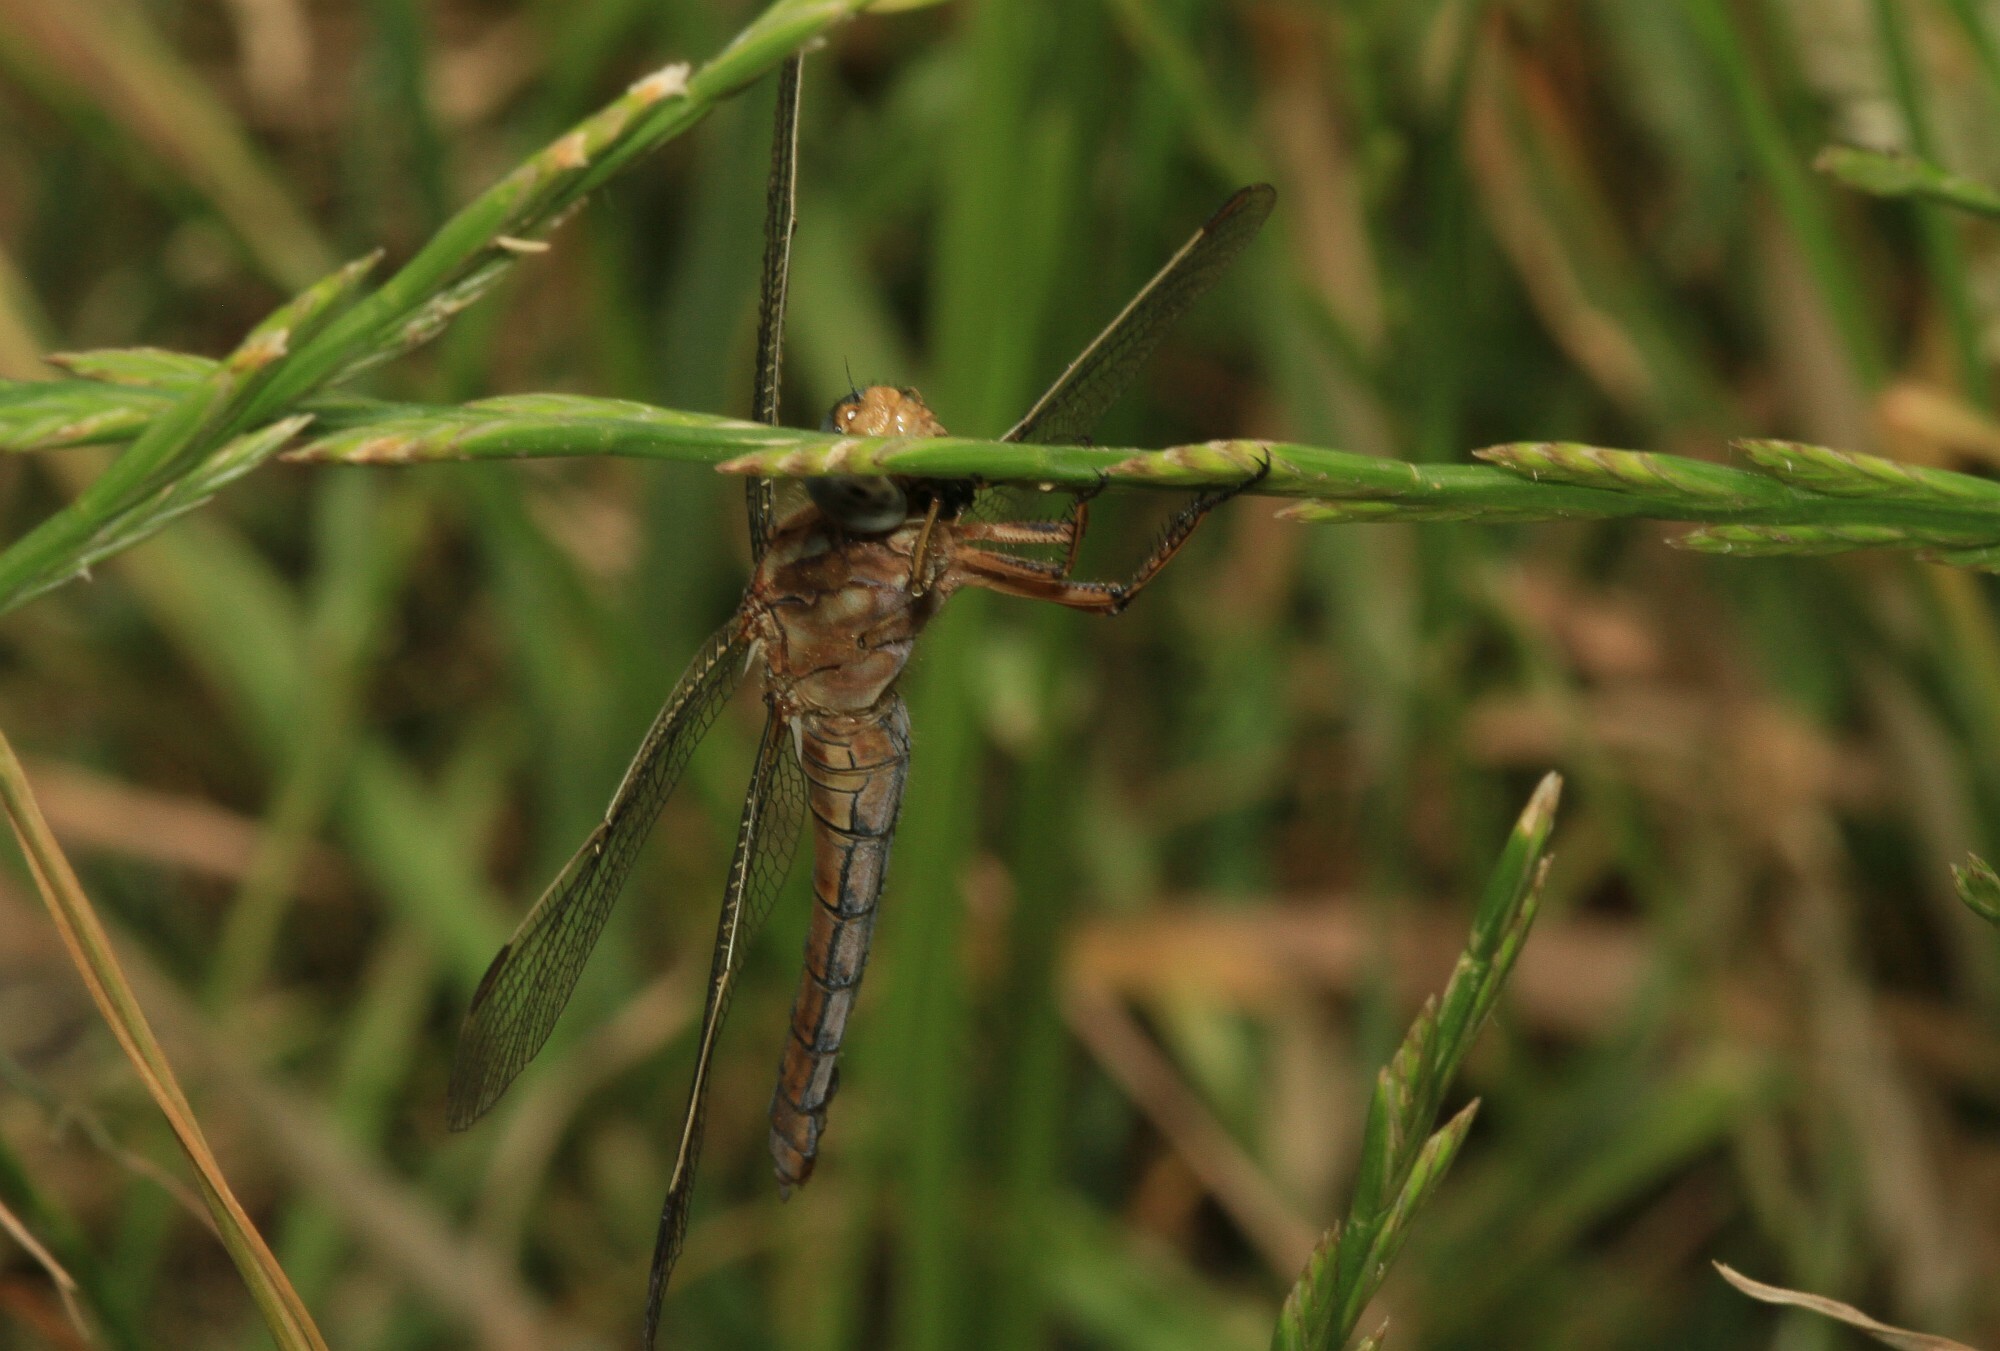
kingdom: Animalia
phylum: Arthropoda
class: Insecta
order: Odonata
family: Libellulidae
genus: Orthetrum
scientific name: Orthetrum coerulescens
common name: Keeled skimmer
